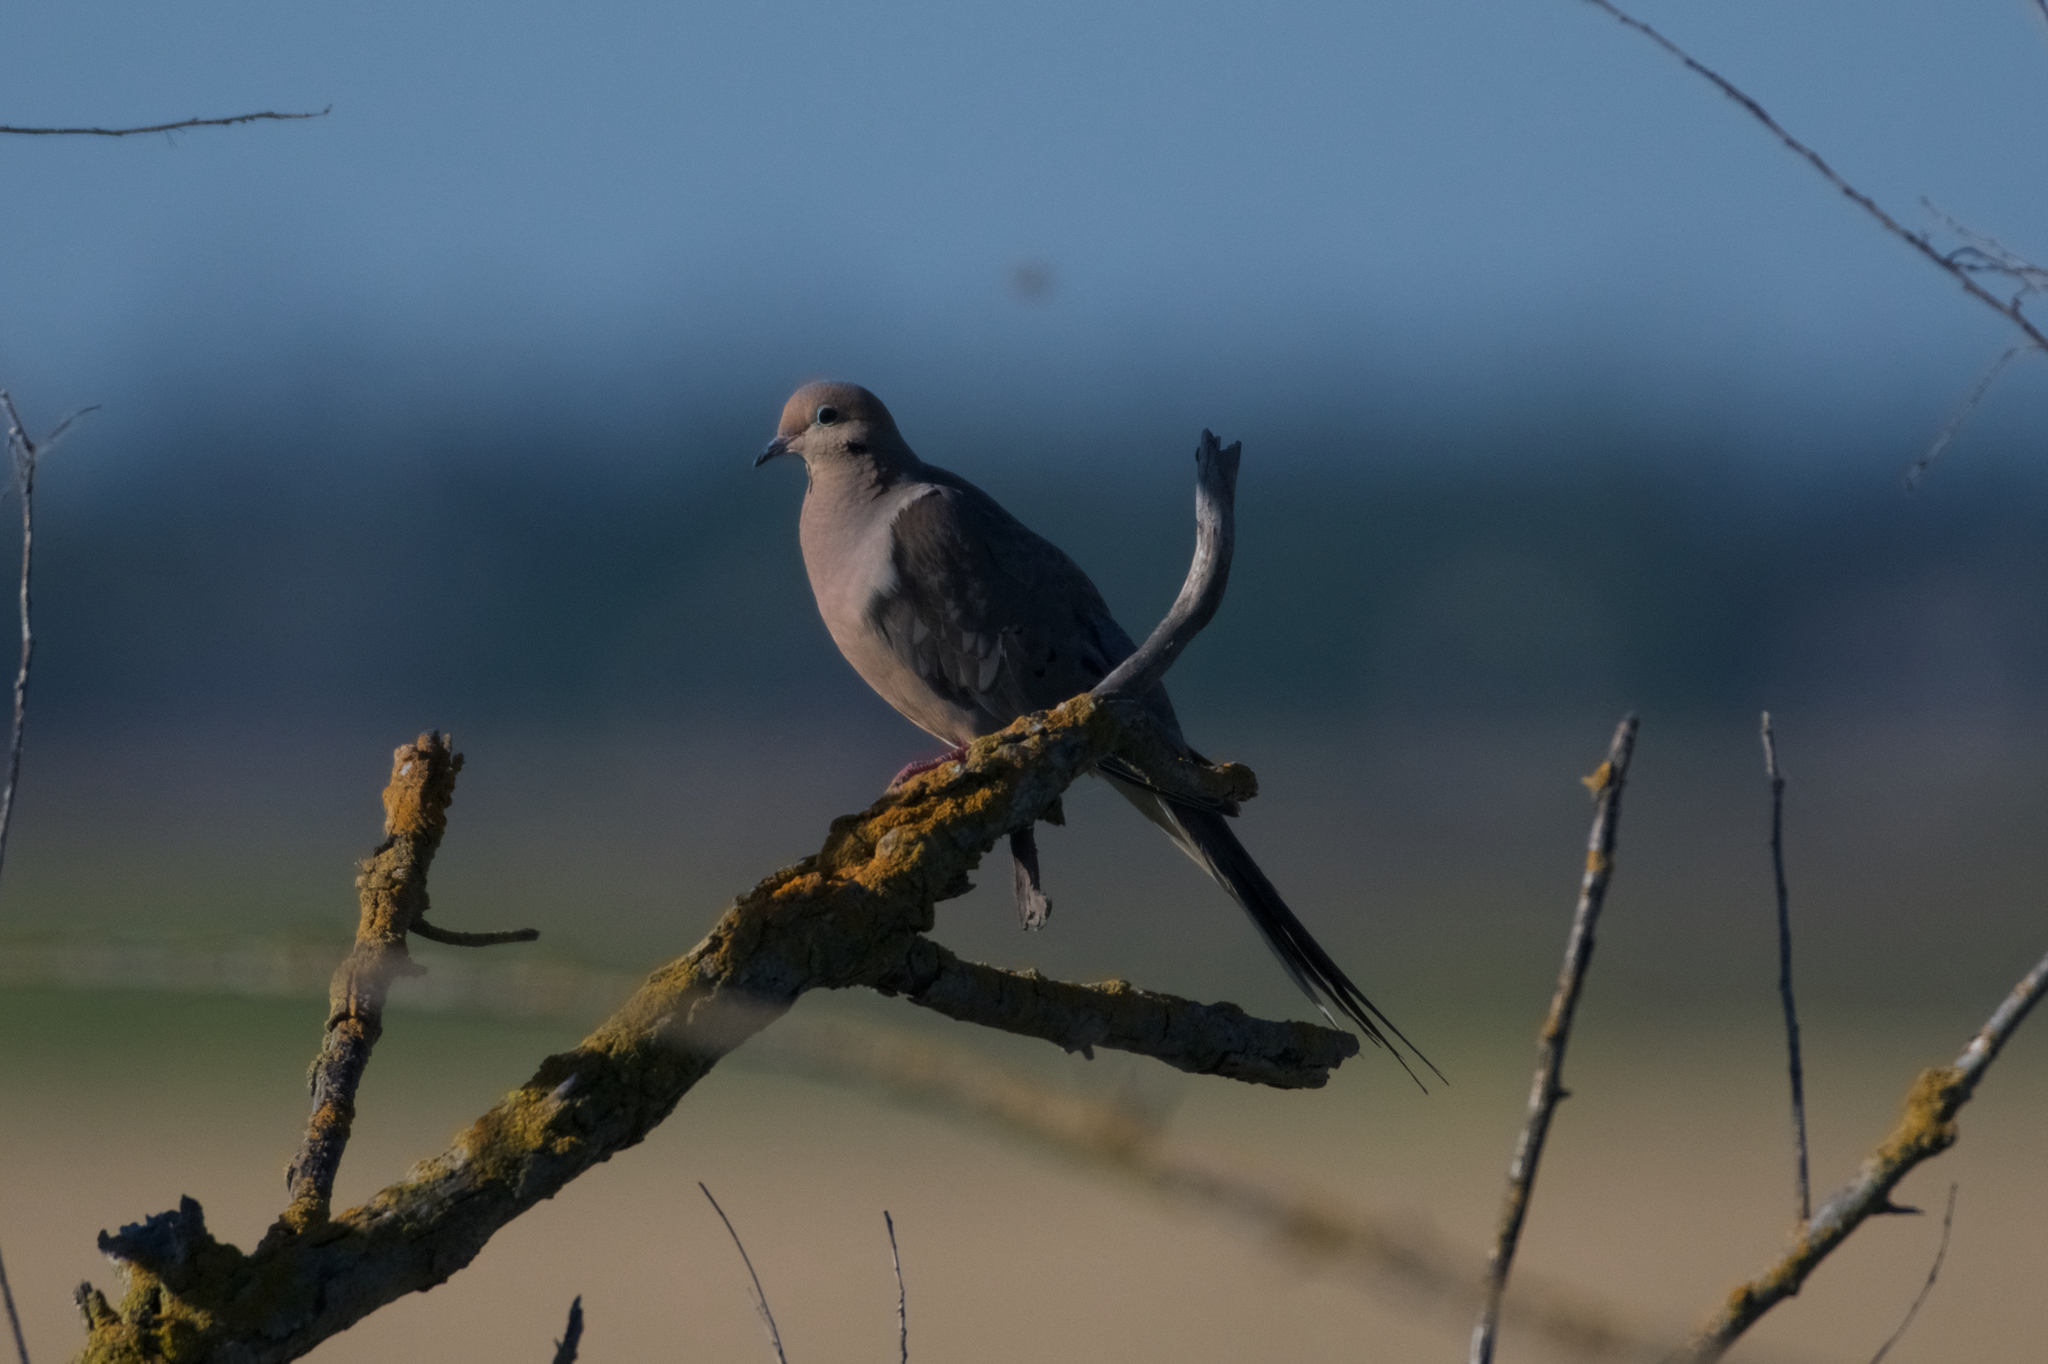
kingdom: Animalia
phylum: Chordata
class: Aves
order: Columbiformes
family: Columbidae
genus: Zenaida
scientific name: Zenaida macroura
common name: Mourning dove
